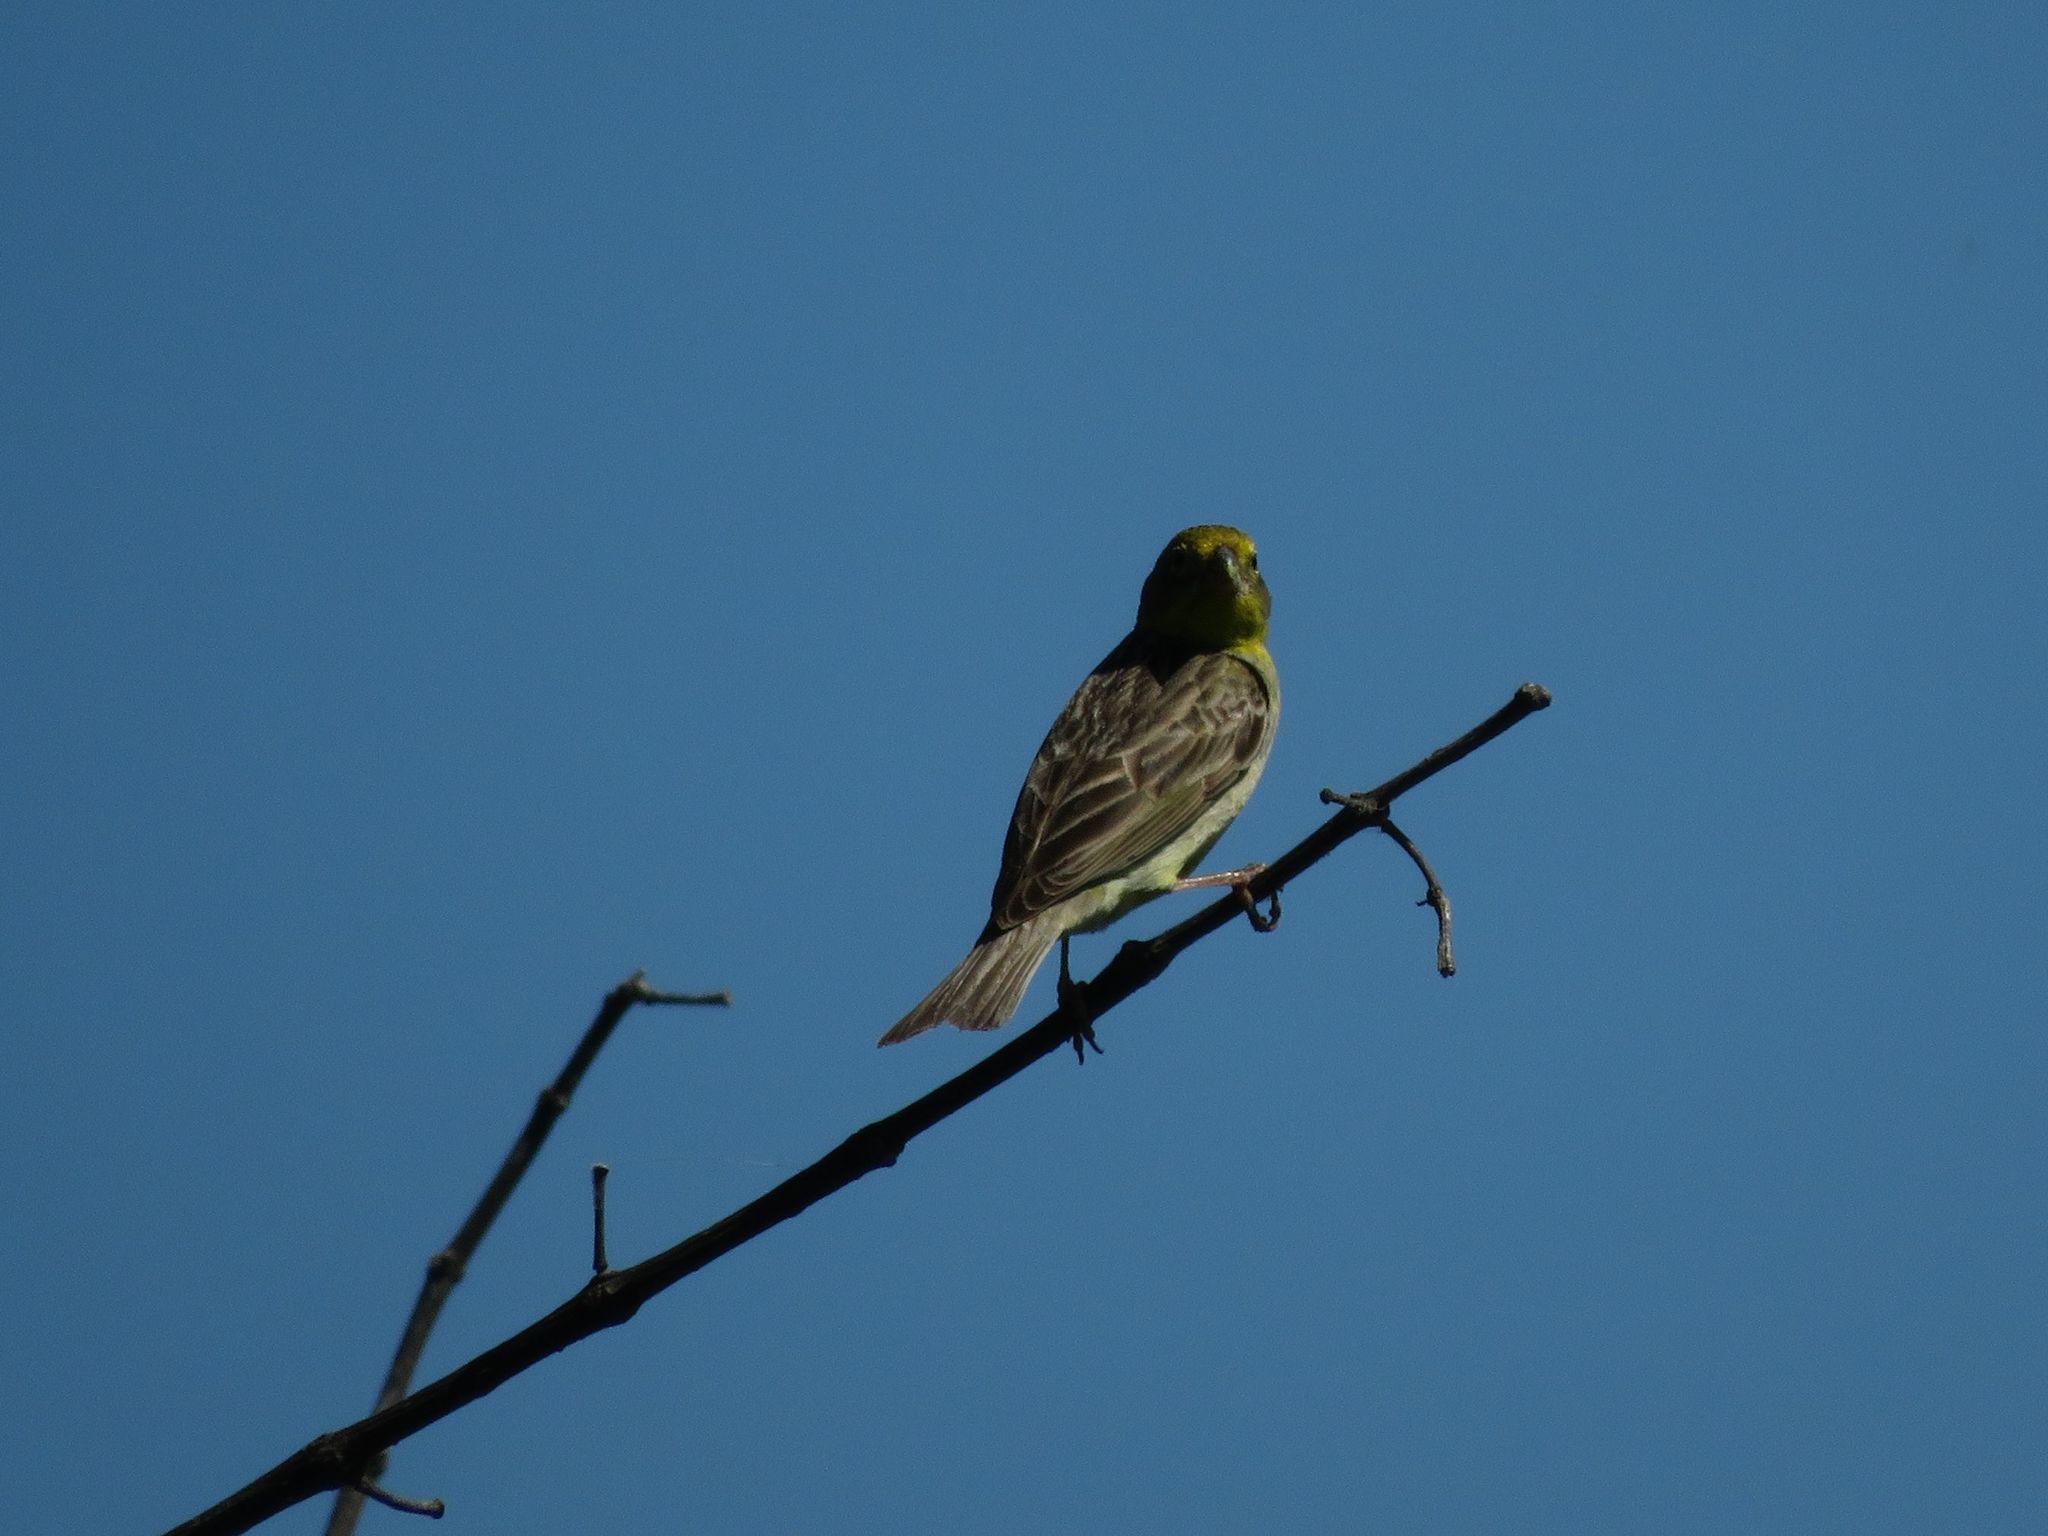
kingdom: Animalia
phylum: Chordata
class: Aves
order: Passeriformes
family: Thraupidae
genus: Sicalis
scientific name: Sicalis luteola
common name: Grassland yellow-finch
